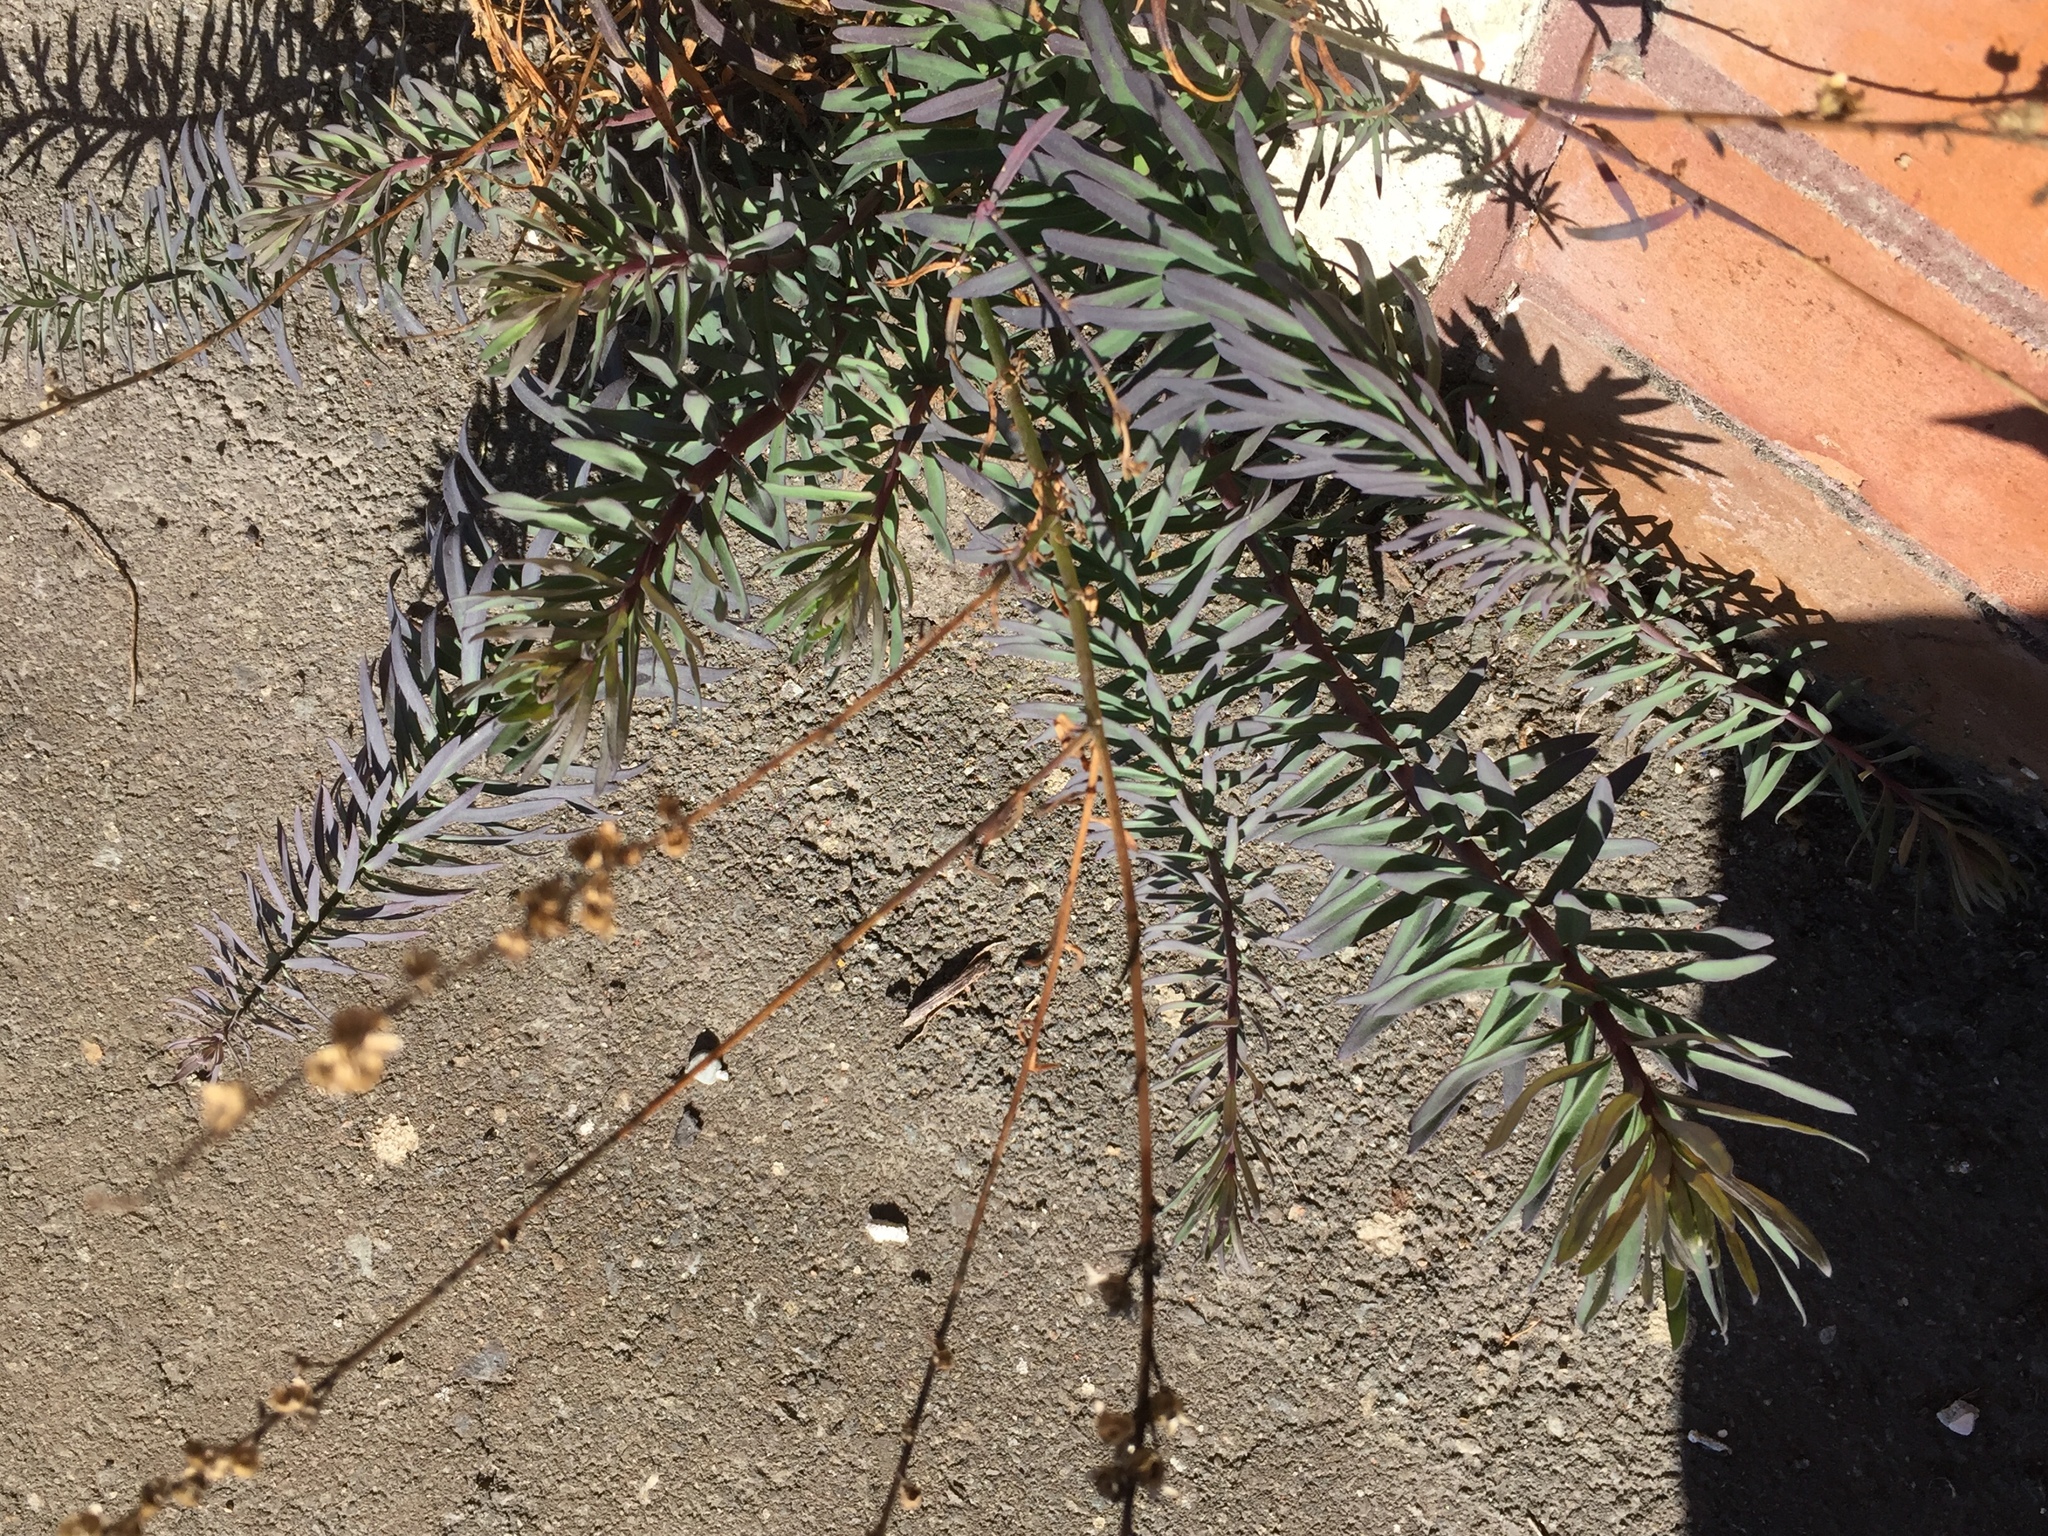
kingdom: Plantae
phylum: Tracheophyta
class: Magnoliopsida
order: Lamiales
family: Plantaginaceae
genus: Linaria
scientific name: Linaria purpurea
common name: Purple toadflax
